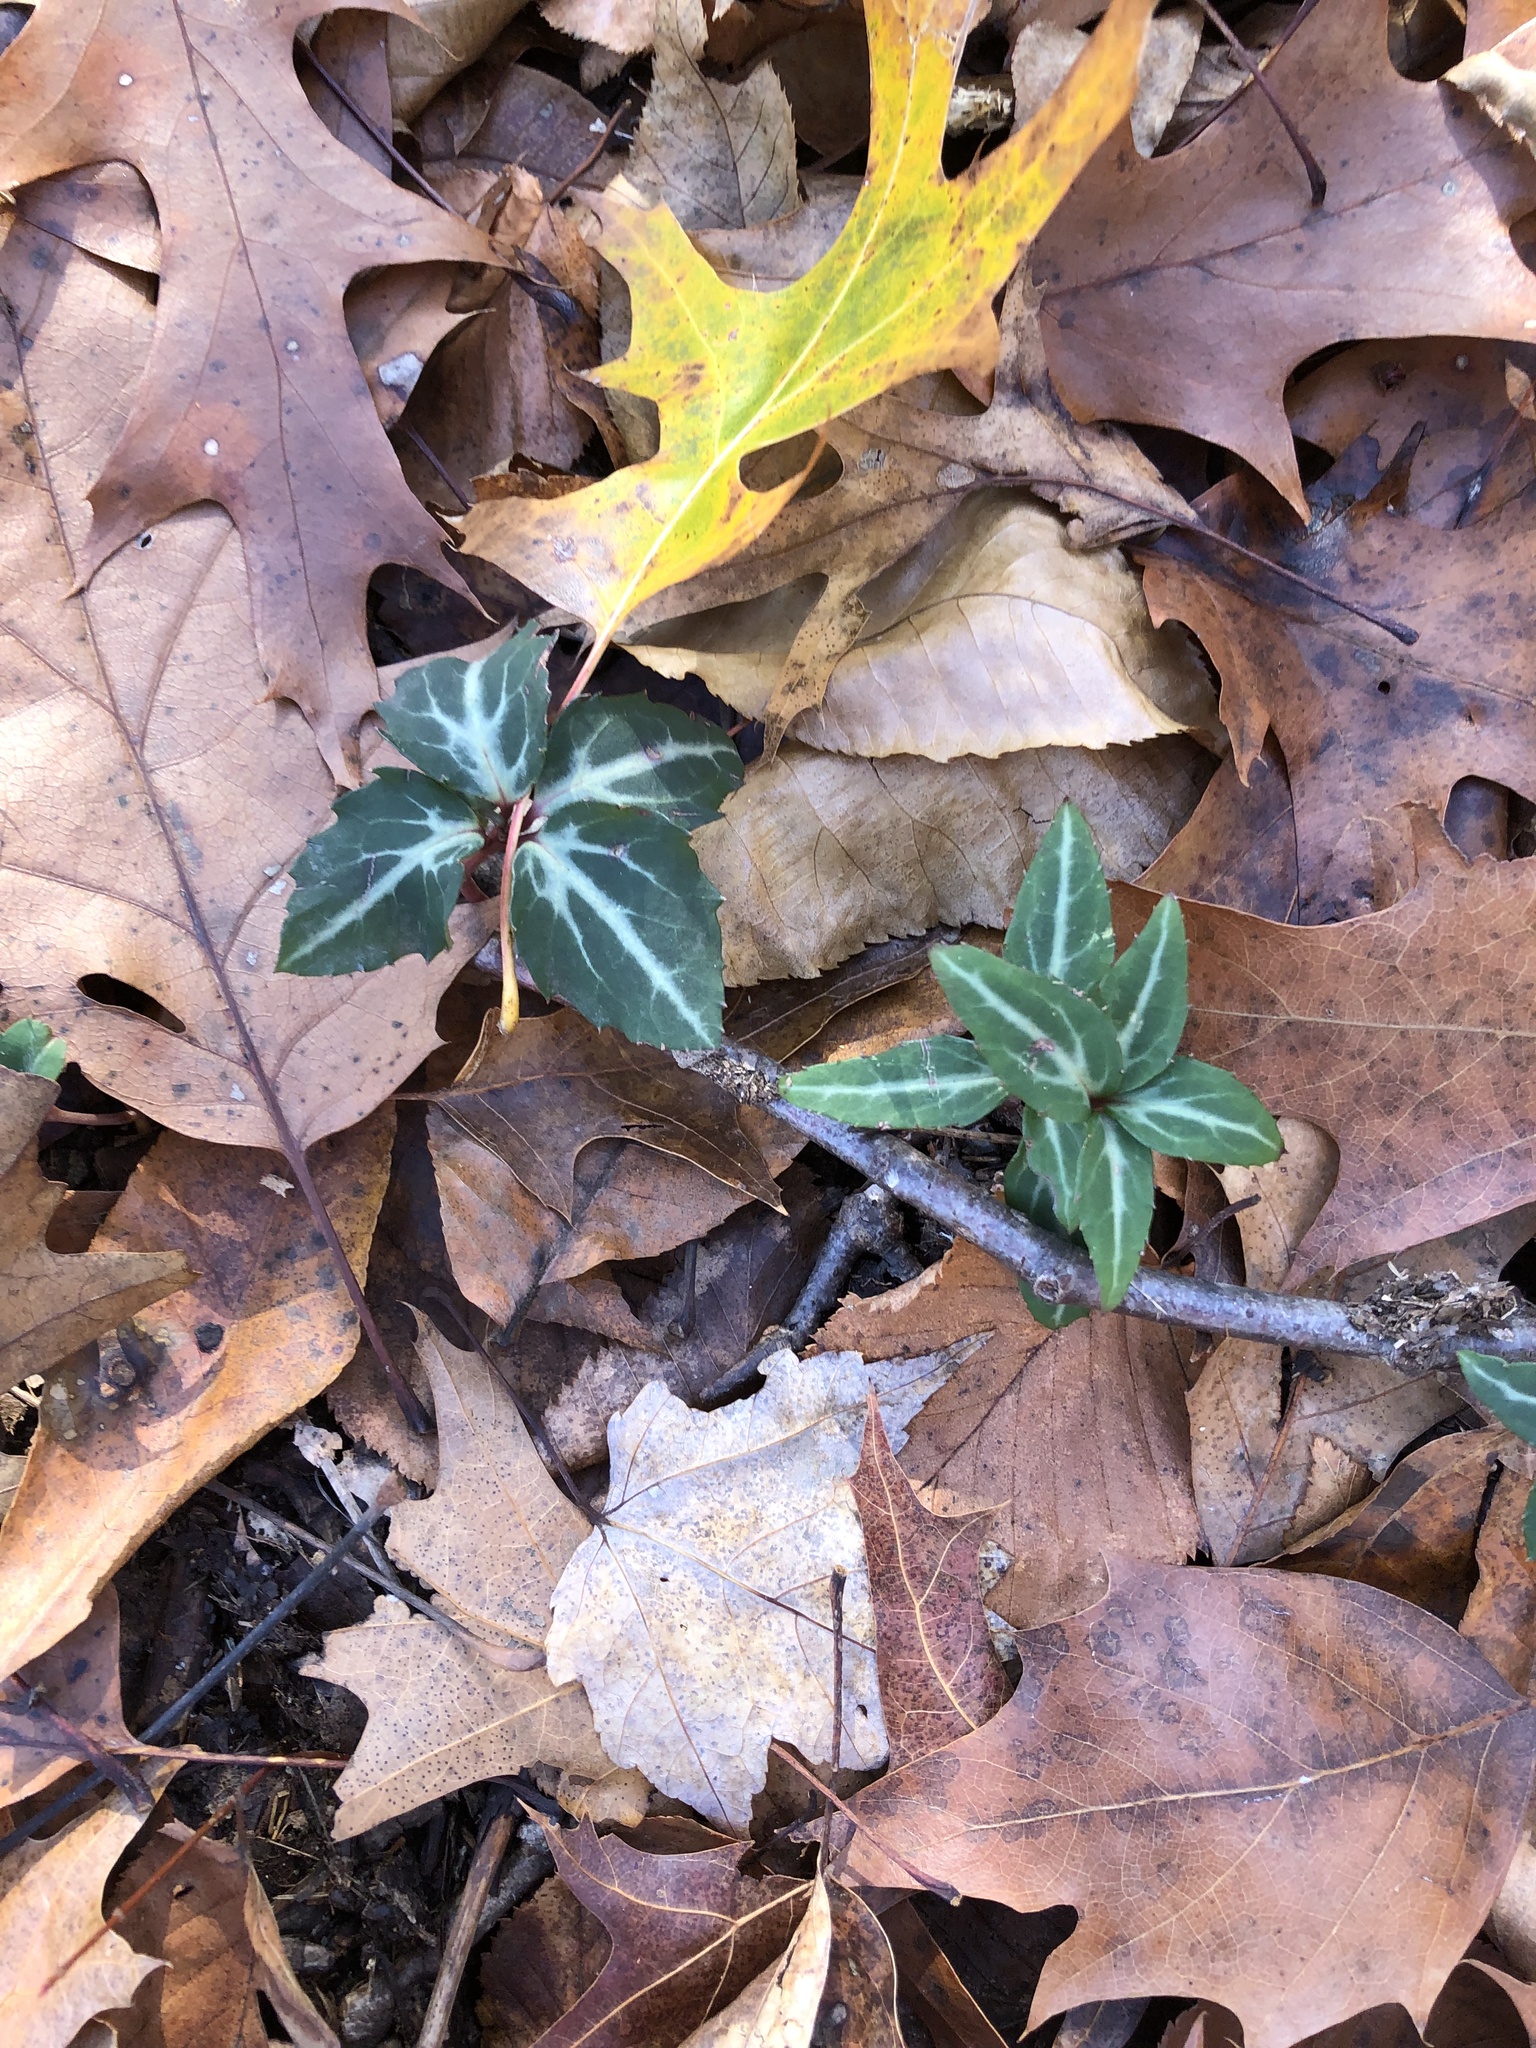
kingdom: Plantae
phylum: Tracheophyta
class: Magnoliopsida
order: Ericales
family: Ericaceae
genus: Chimaphila
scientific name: Chimaphila maculata
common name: Spotted pipsissewa
